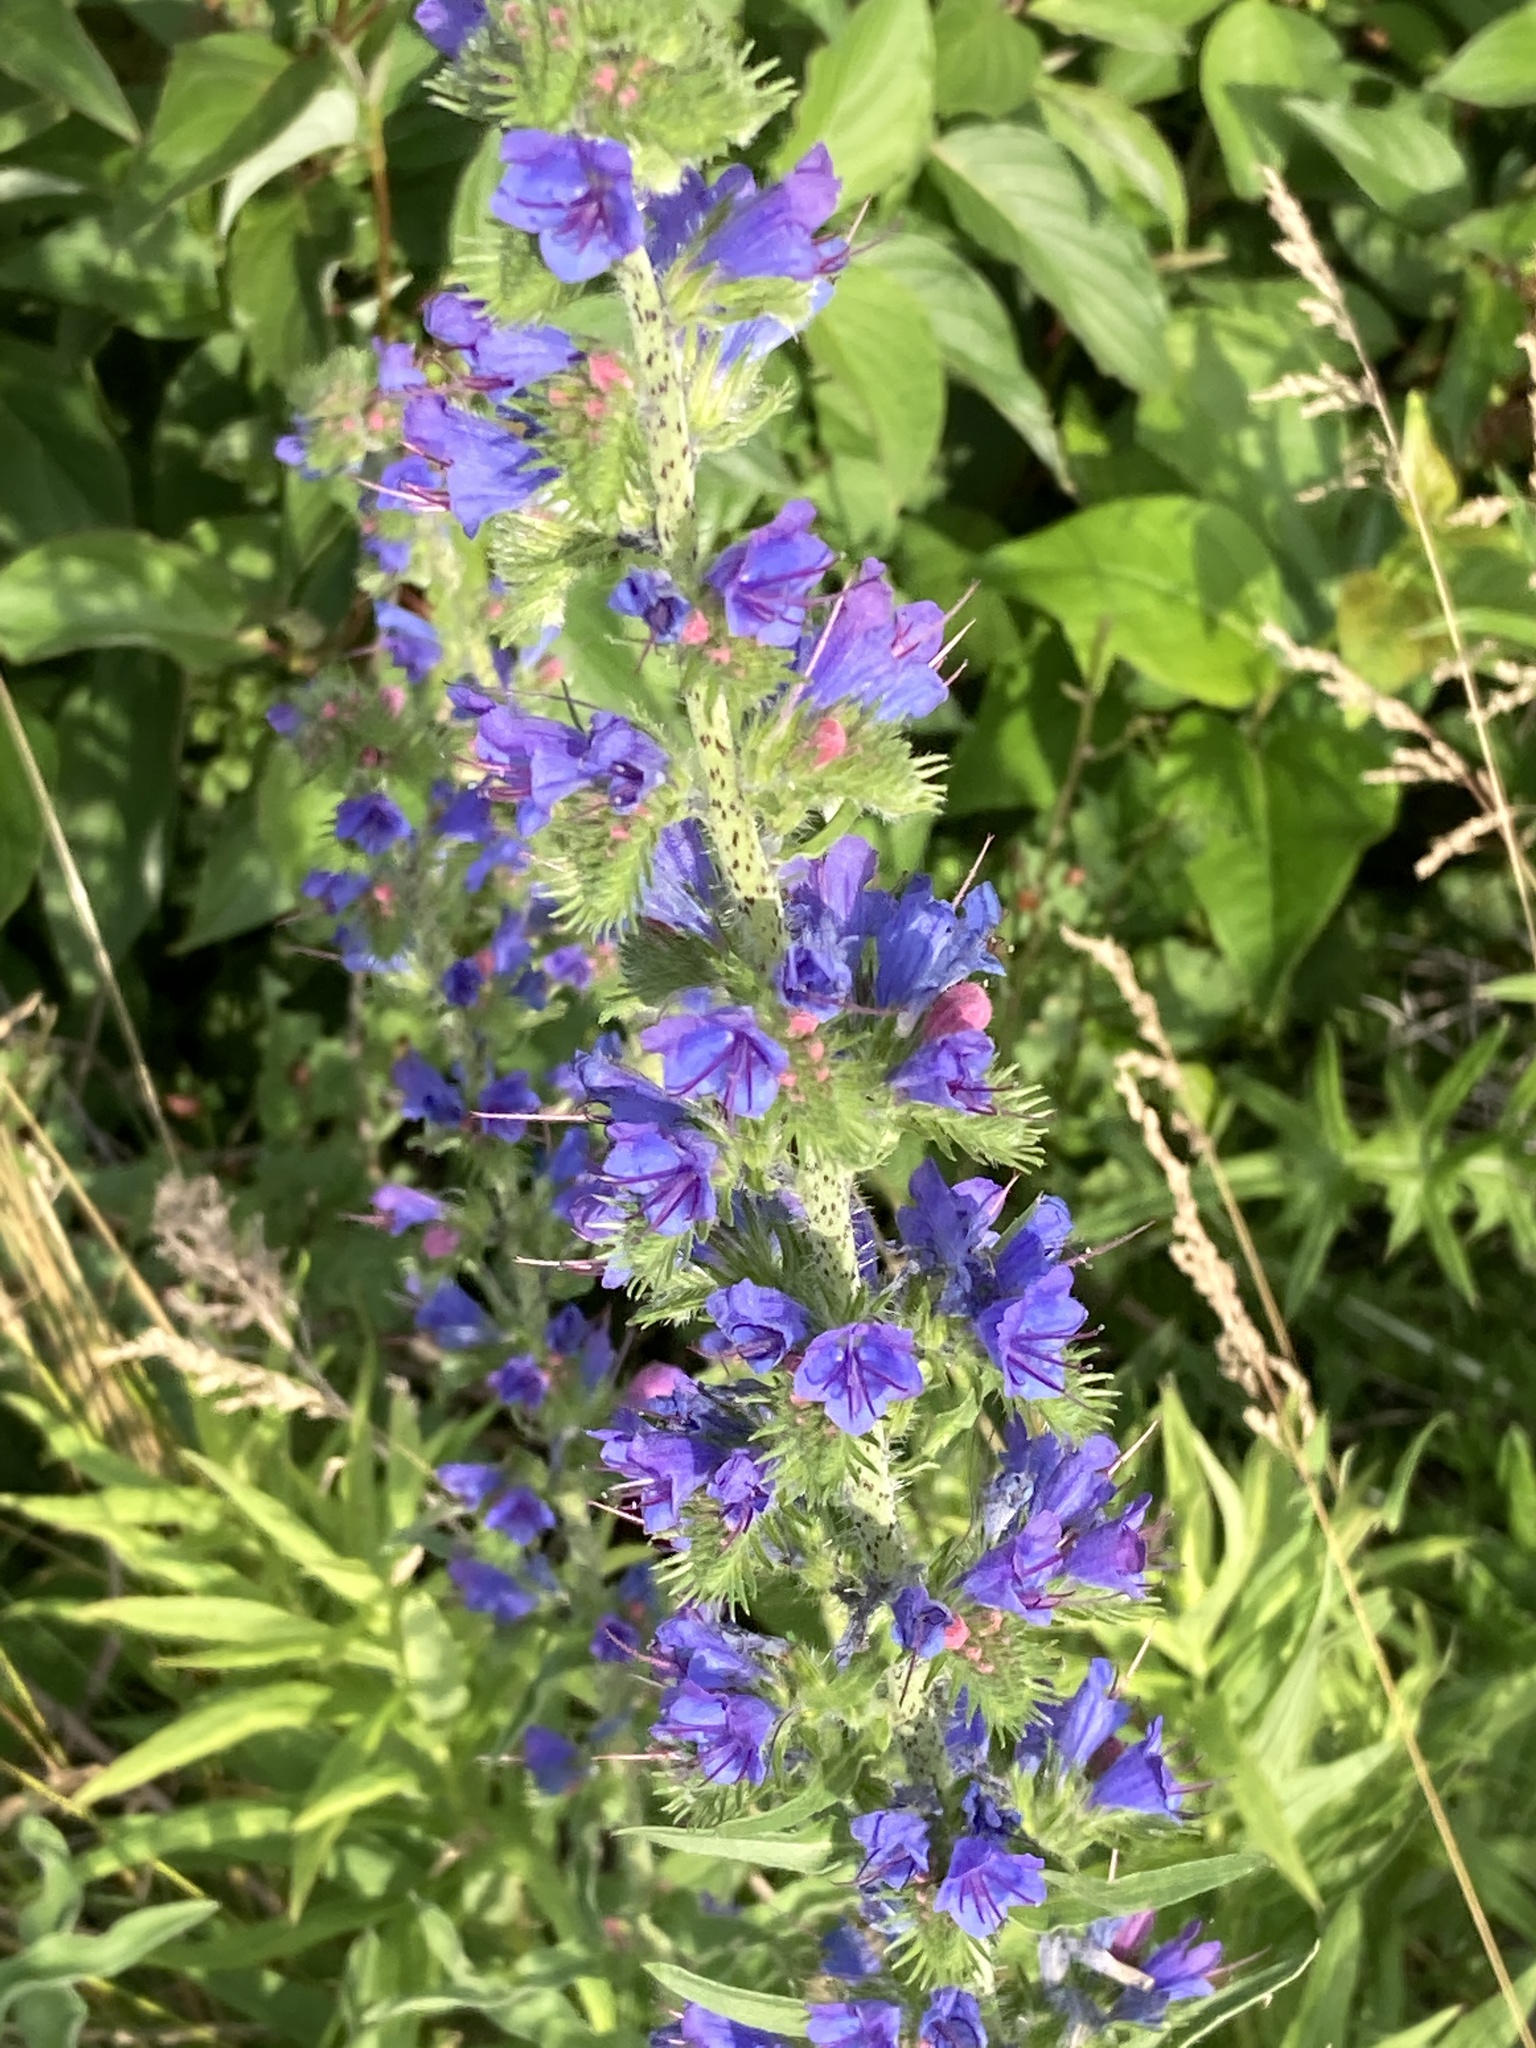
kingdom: Plantae
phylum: Tracheophyta
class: Magnoliopsida
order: Boraginales
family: Boraginaceae
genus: Echium
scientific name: Echium vulgare
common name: Common viper's bugloss
